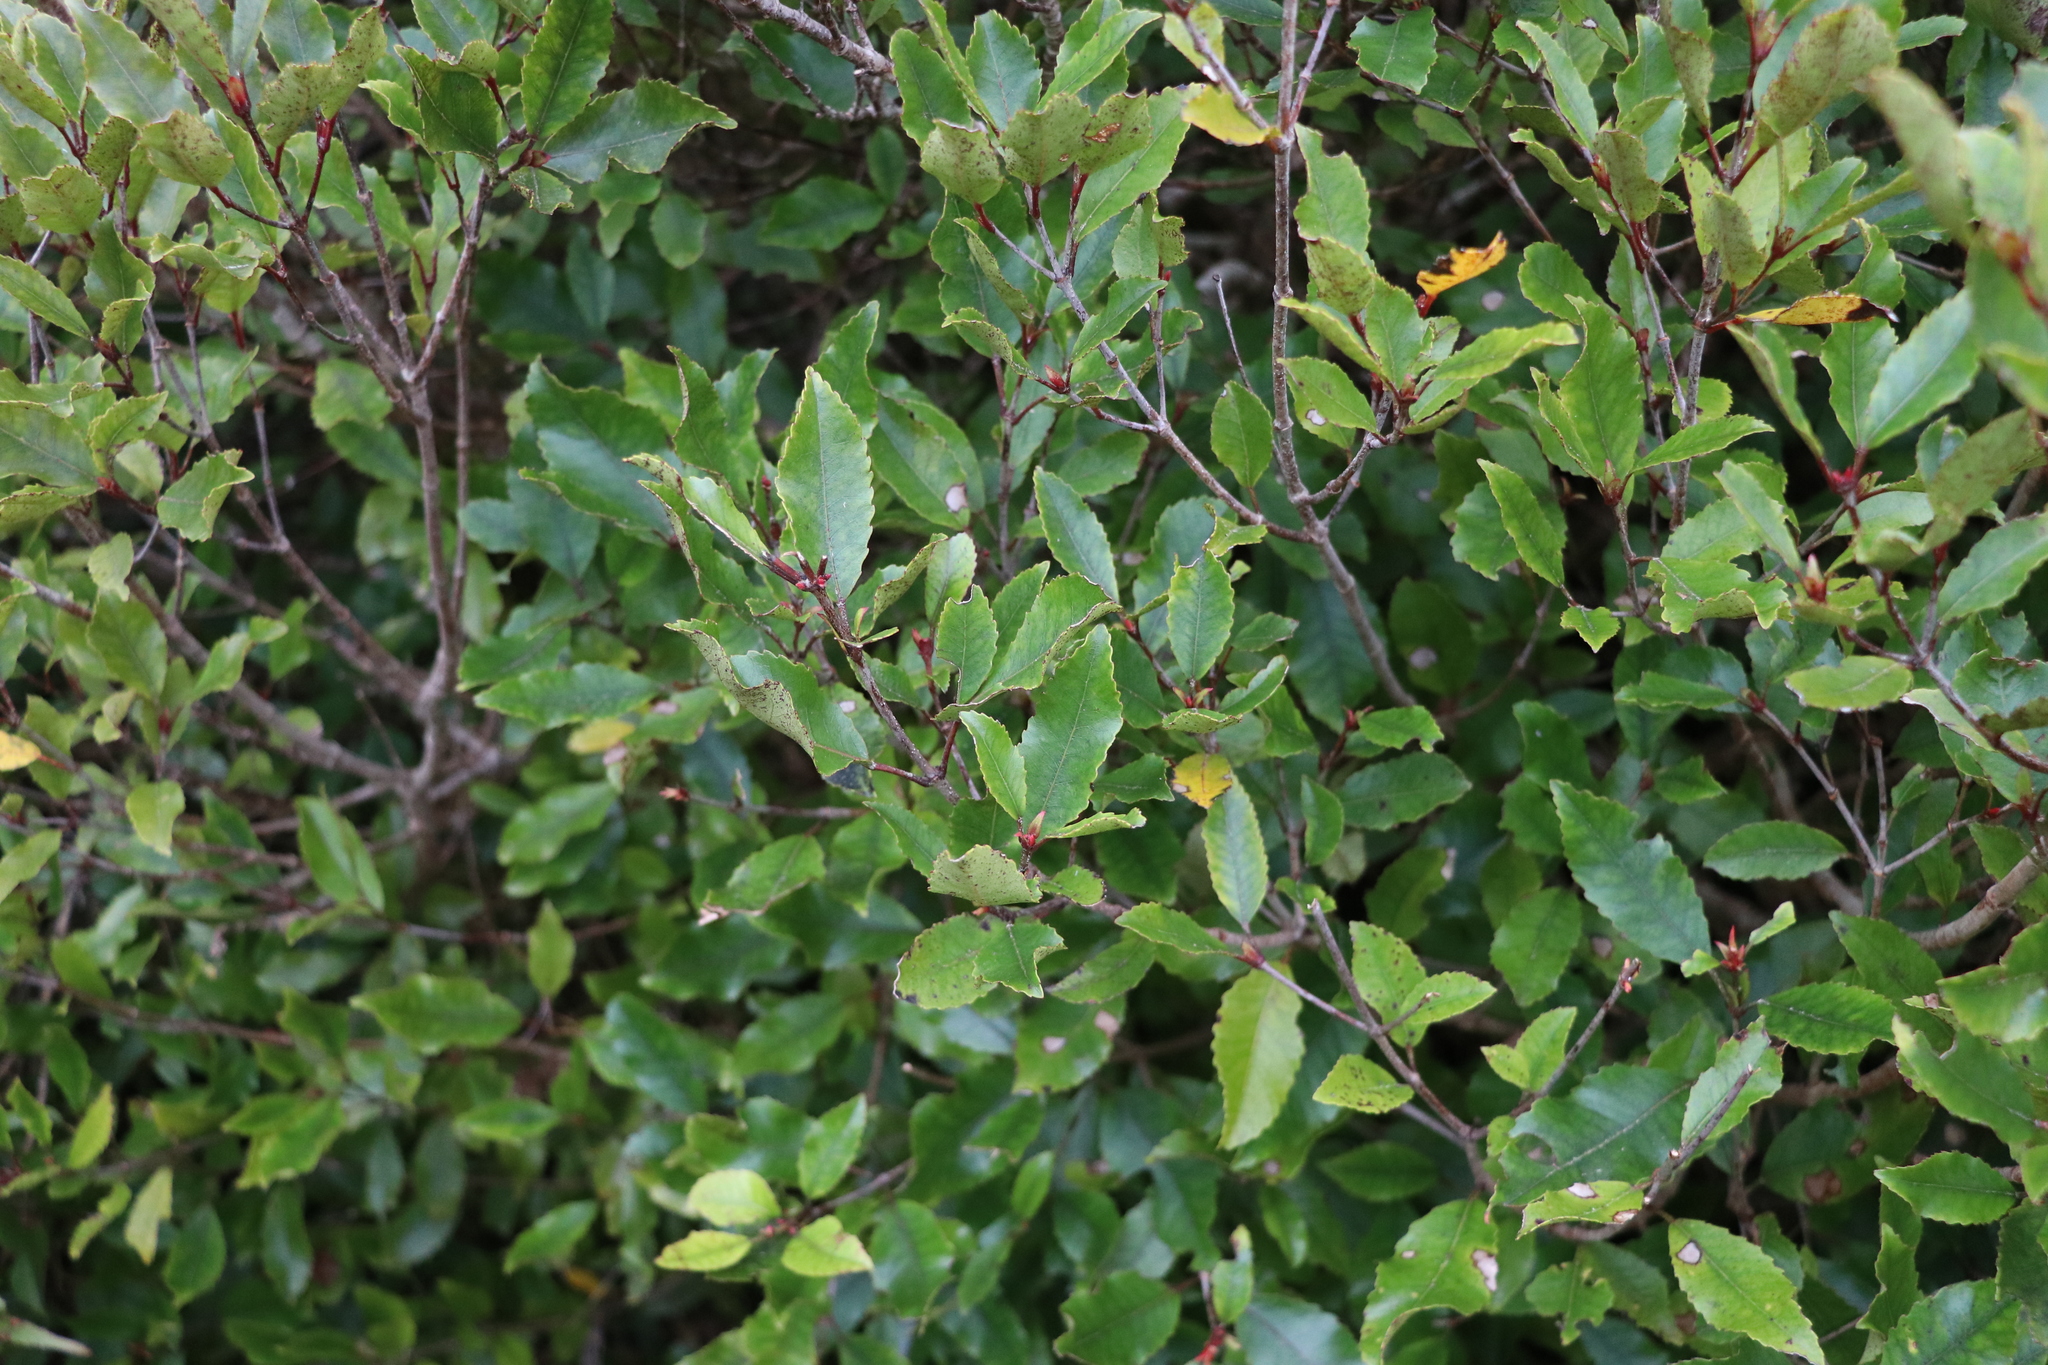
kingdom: Plantae
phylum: Tracheophyta
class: Magnoliopsida
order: Oxalidales
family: Cunoniaceae
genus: Pterophylla
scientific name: Pterophylla racemosa
